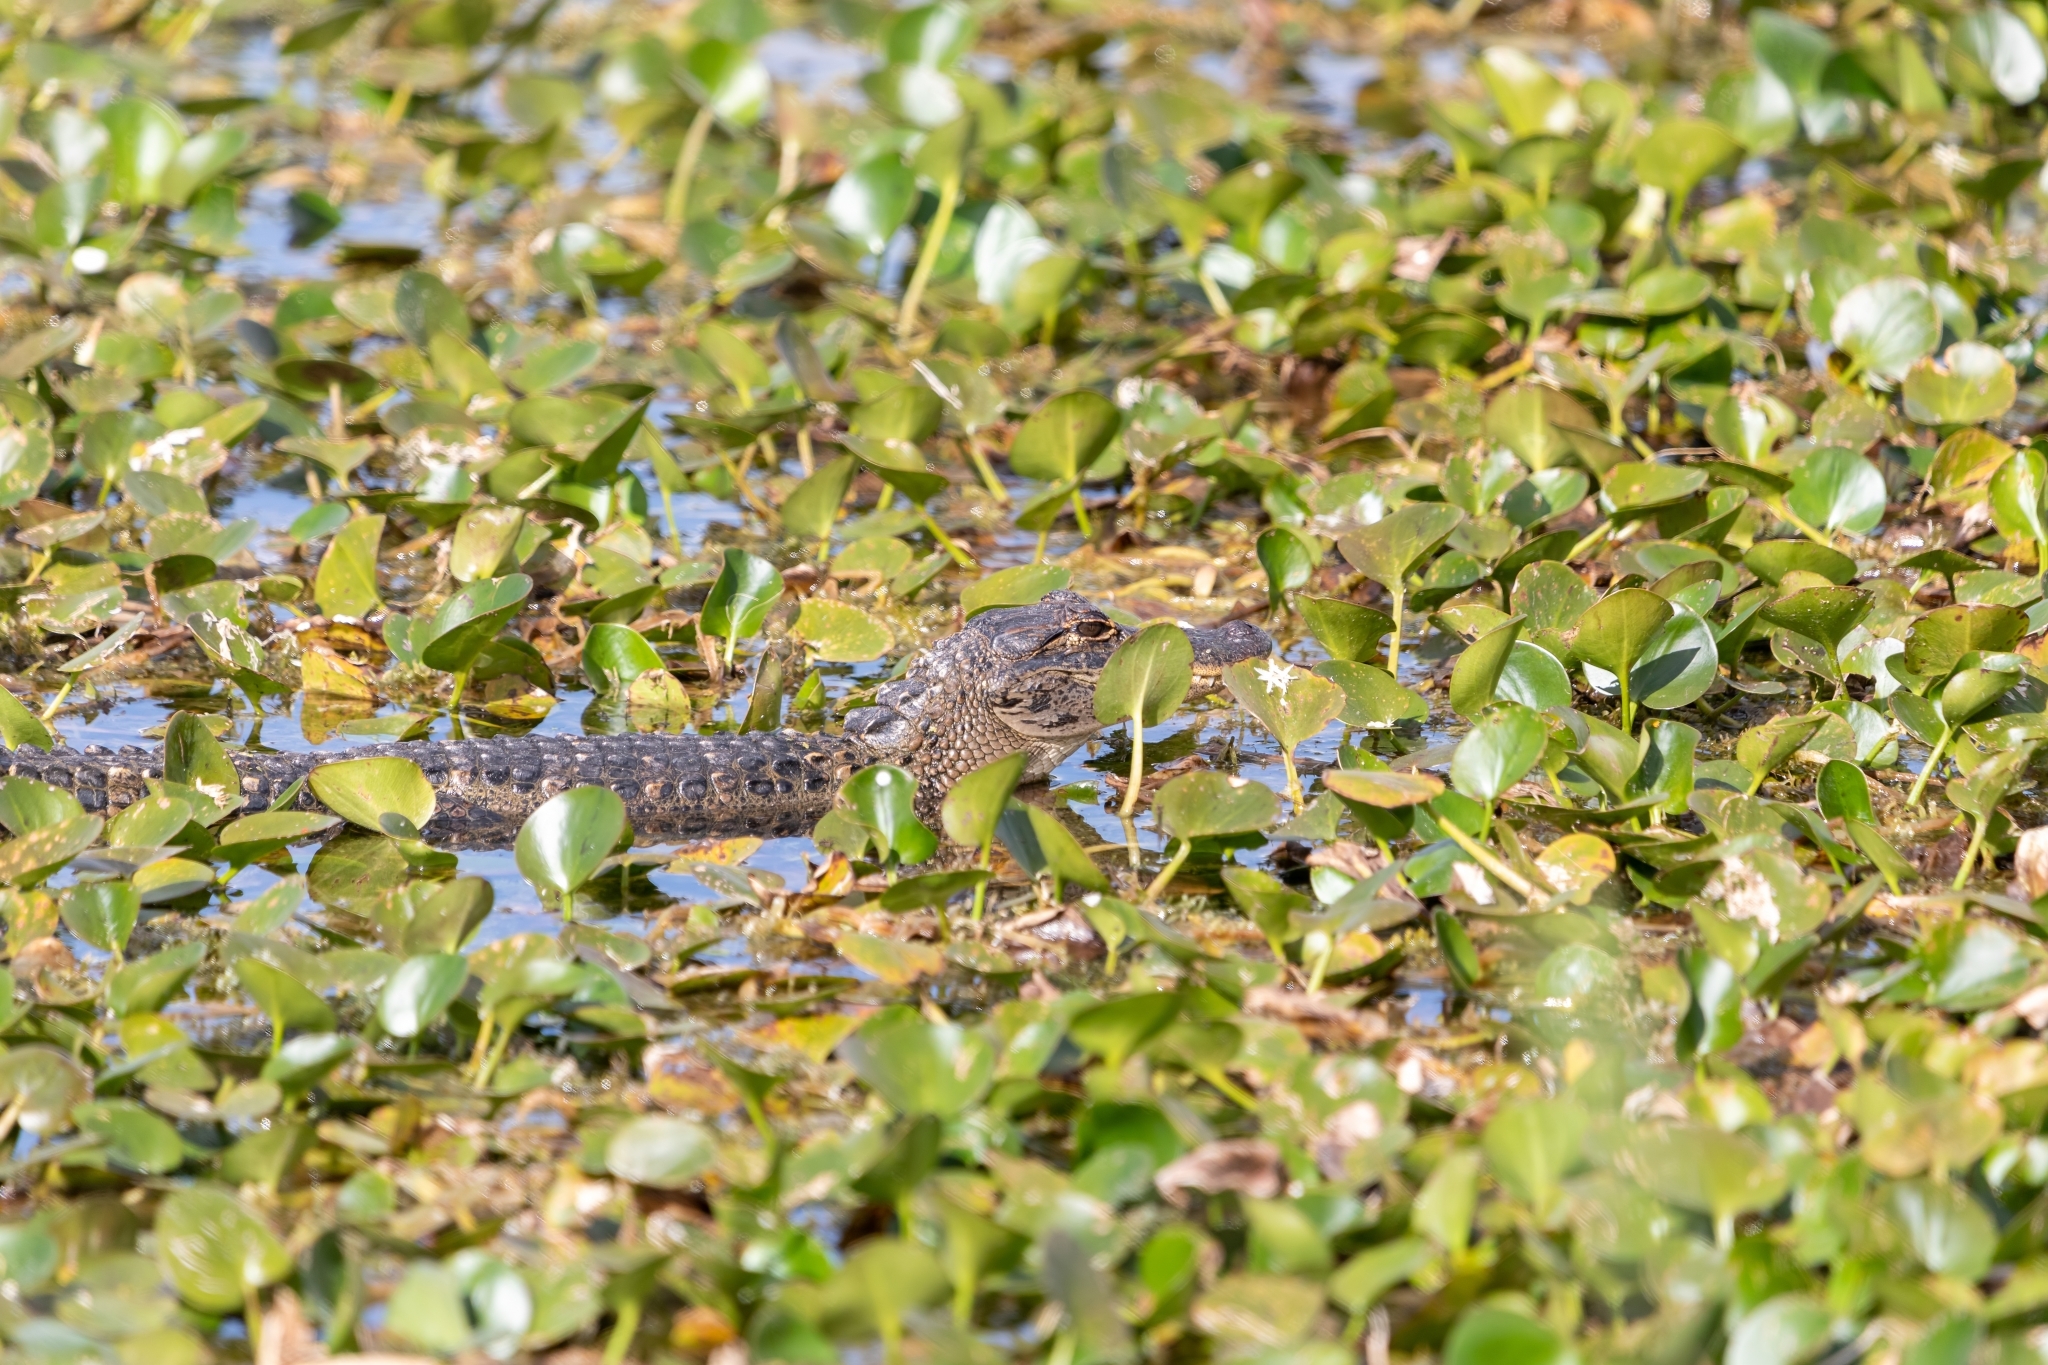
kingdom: Animalia
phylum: Chordata
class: Crocodylia
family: Alligatoridae
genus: Alligator
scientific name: Alligator mississippiensis
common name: American alligator
